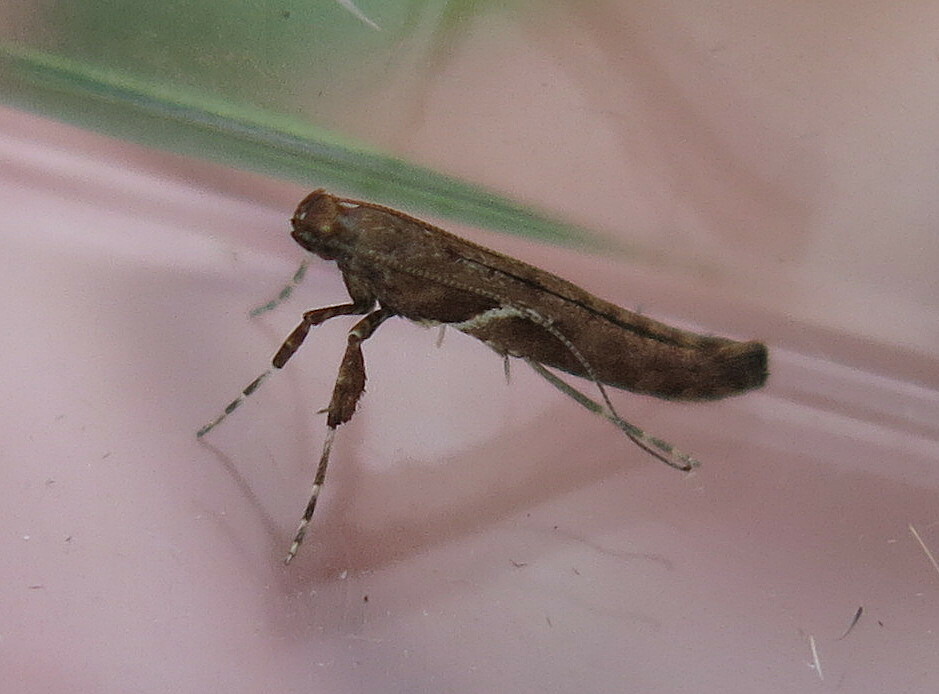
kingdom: Animalia
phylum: Arthropoda
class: Insecta
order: Lepidoptera
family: Gracillariidae
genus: Caloptilia
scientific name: Caloptilia semifascia
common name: Maple slender
